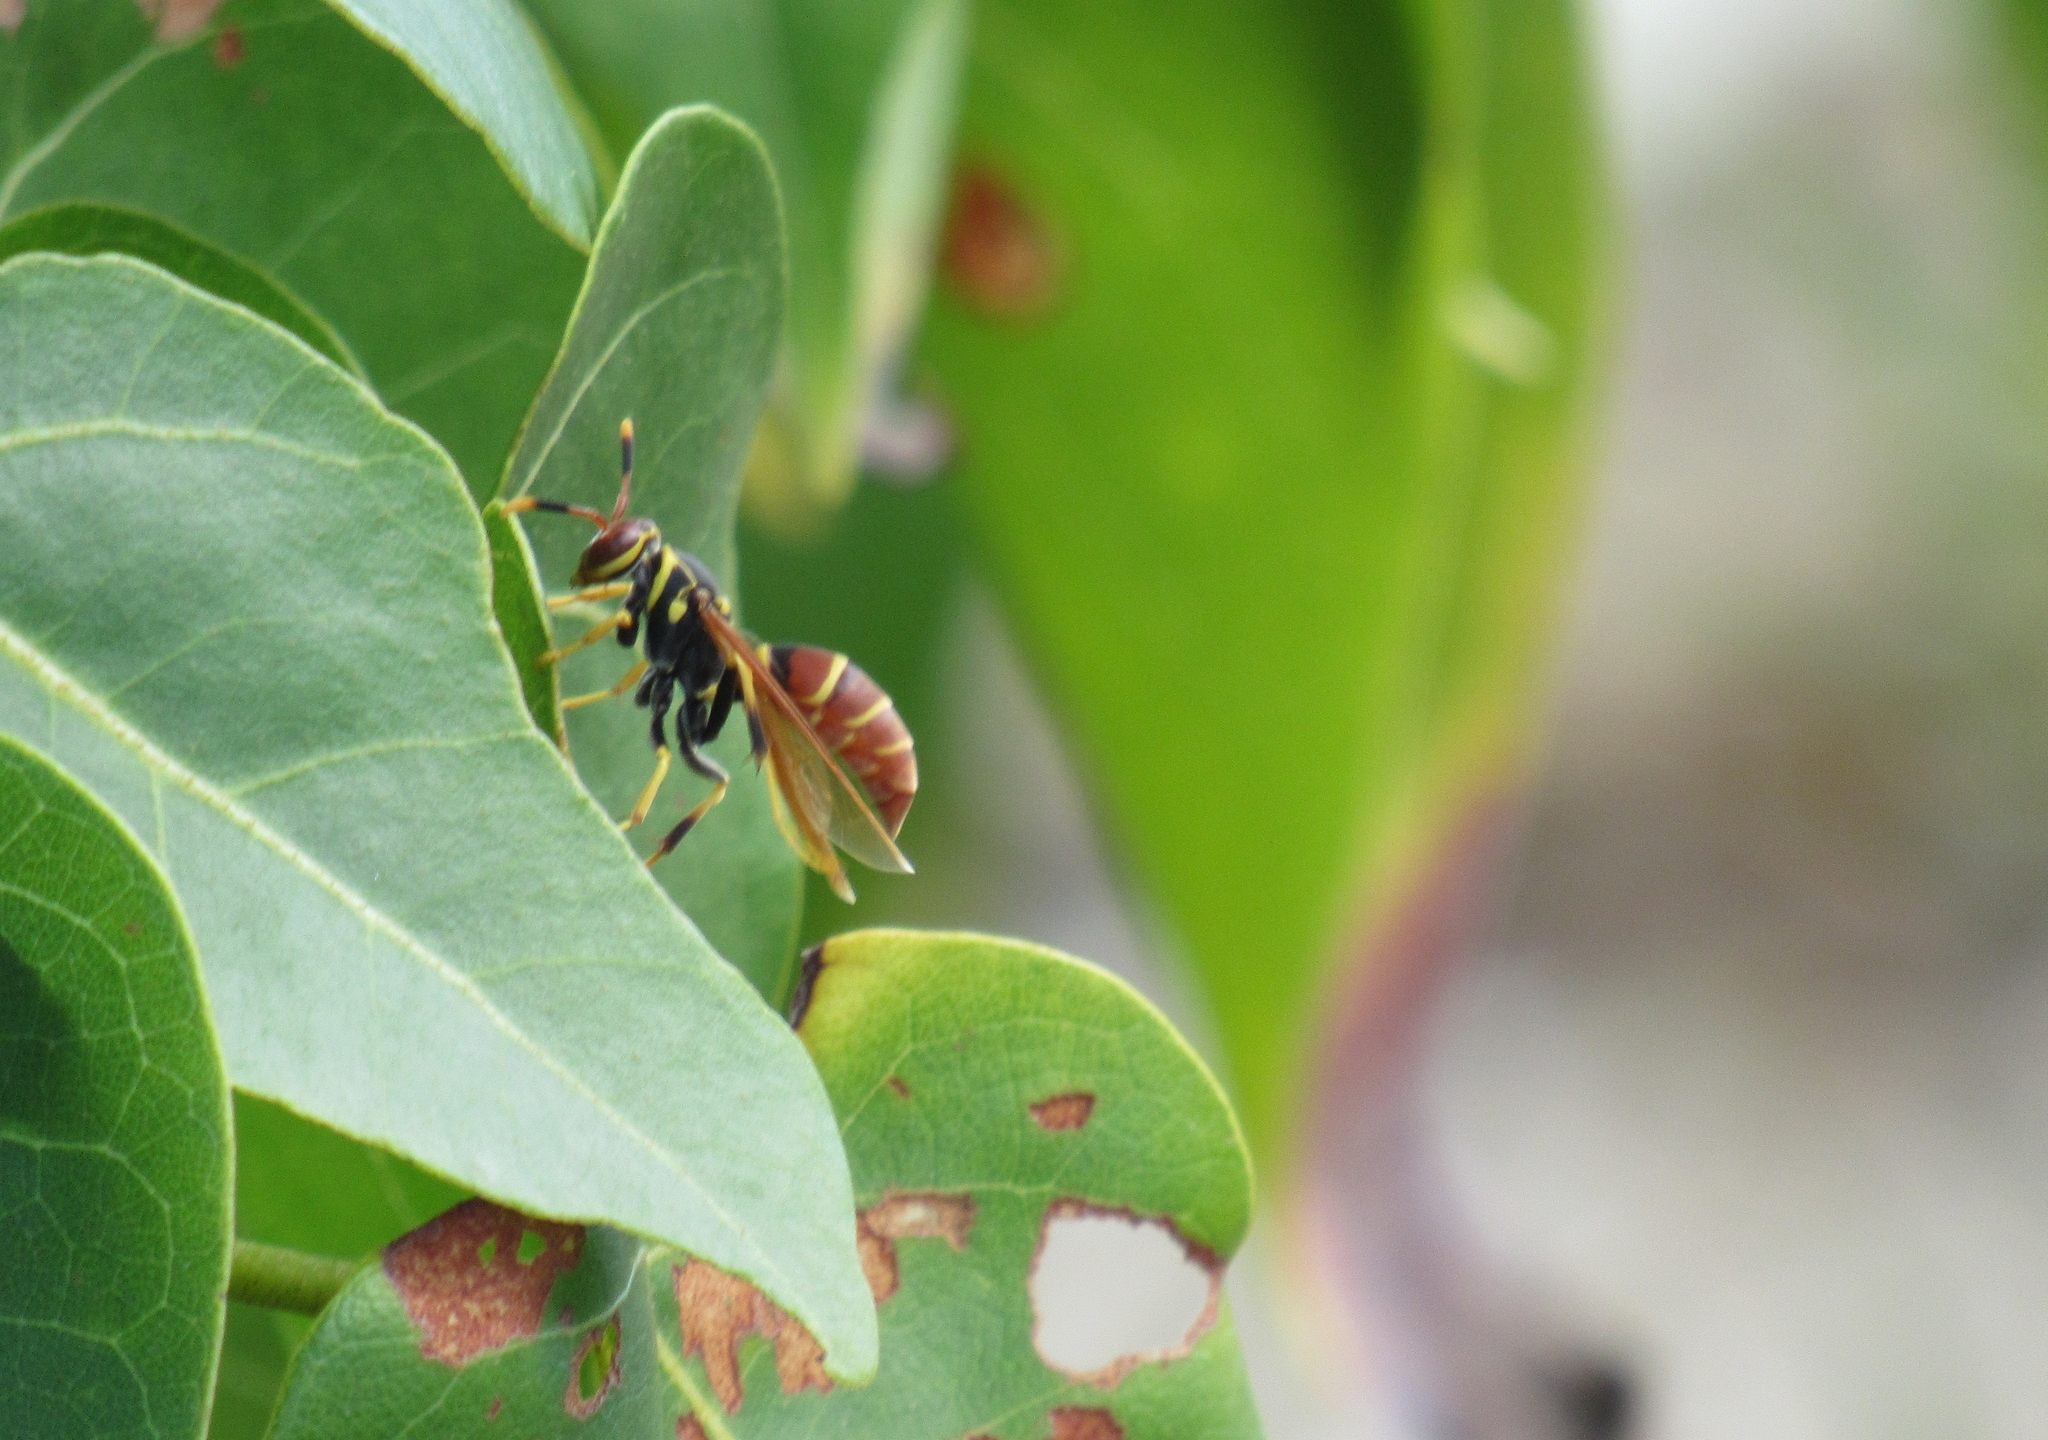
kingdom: Animalia
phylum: Arthropoda
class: Insecta
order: Hymenoptera
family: Eumenidae
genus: Polistes
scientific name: Polistes crinitus
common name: Jack spaniard
